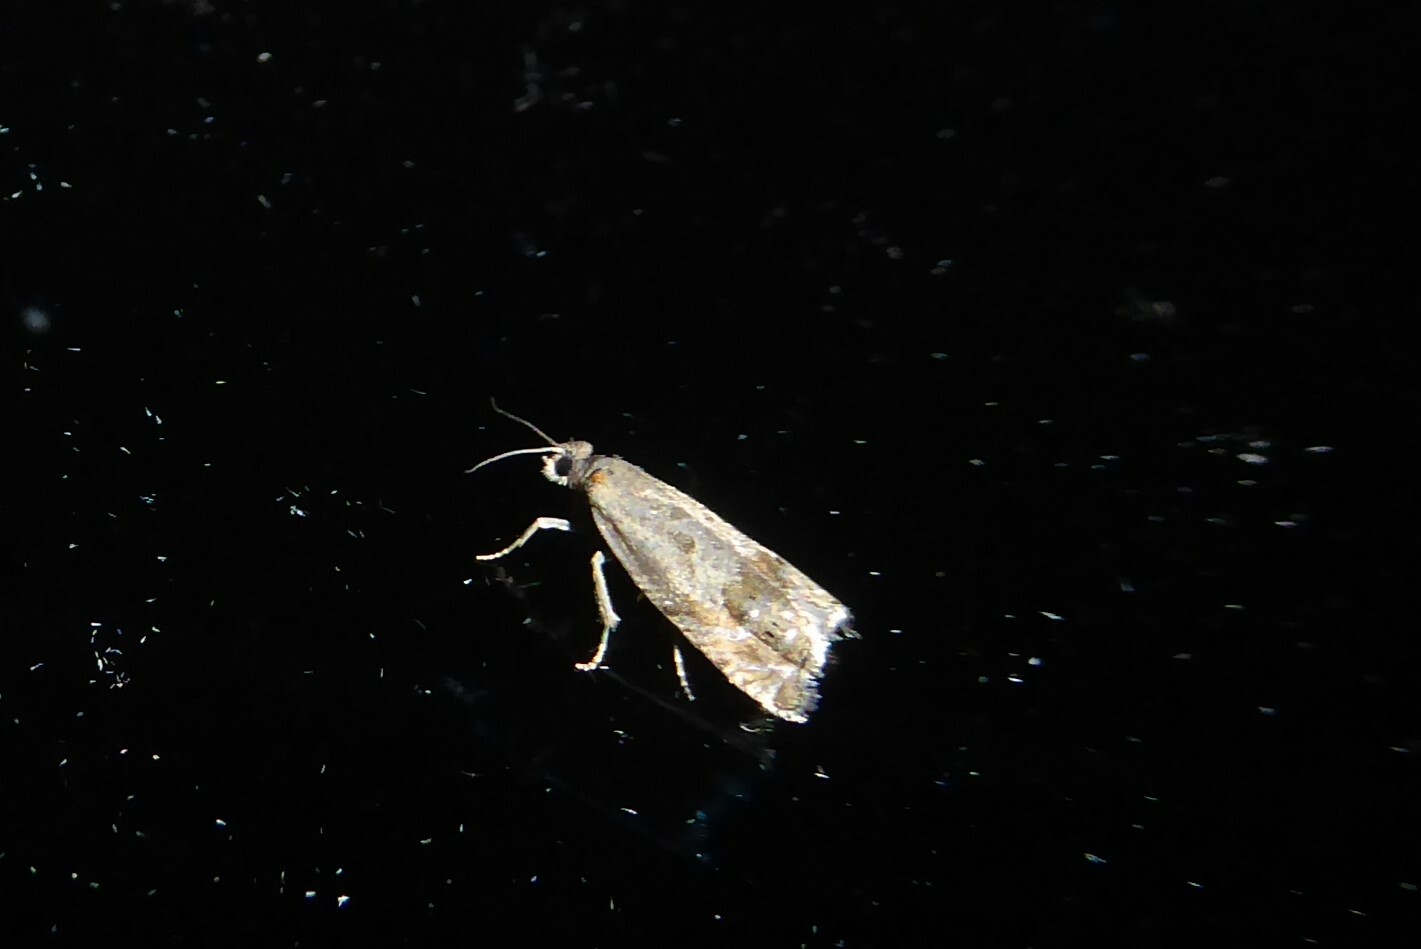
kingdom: Animalia
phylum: Arthropoda
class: Insecta
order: Lepidoptera
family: Tortricidae
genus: Cydia
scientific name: Cydia succedana
